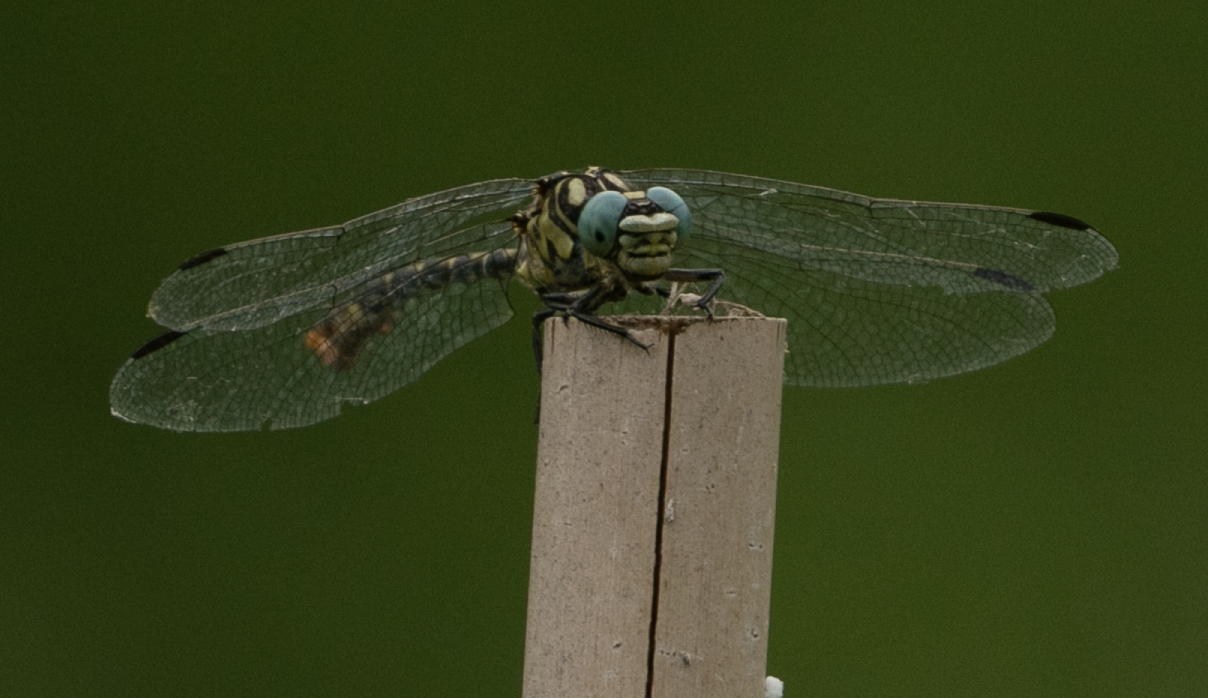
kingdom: Animalia
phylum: Arthropoda
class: Insecta
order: Odonata
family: Gomphidae
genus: Onychogomphus
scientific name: Onychogomphus forcipatus
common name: Small pincertail
